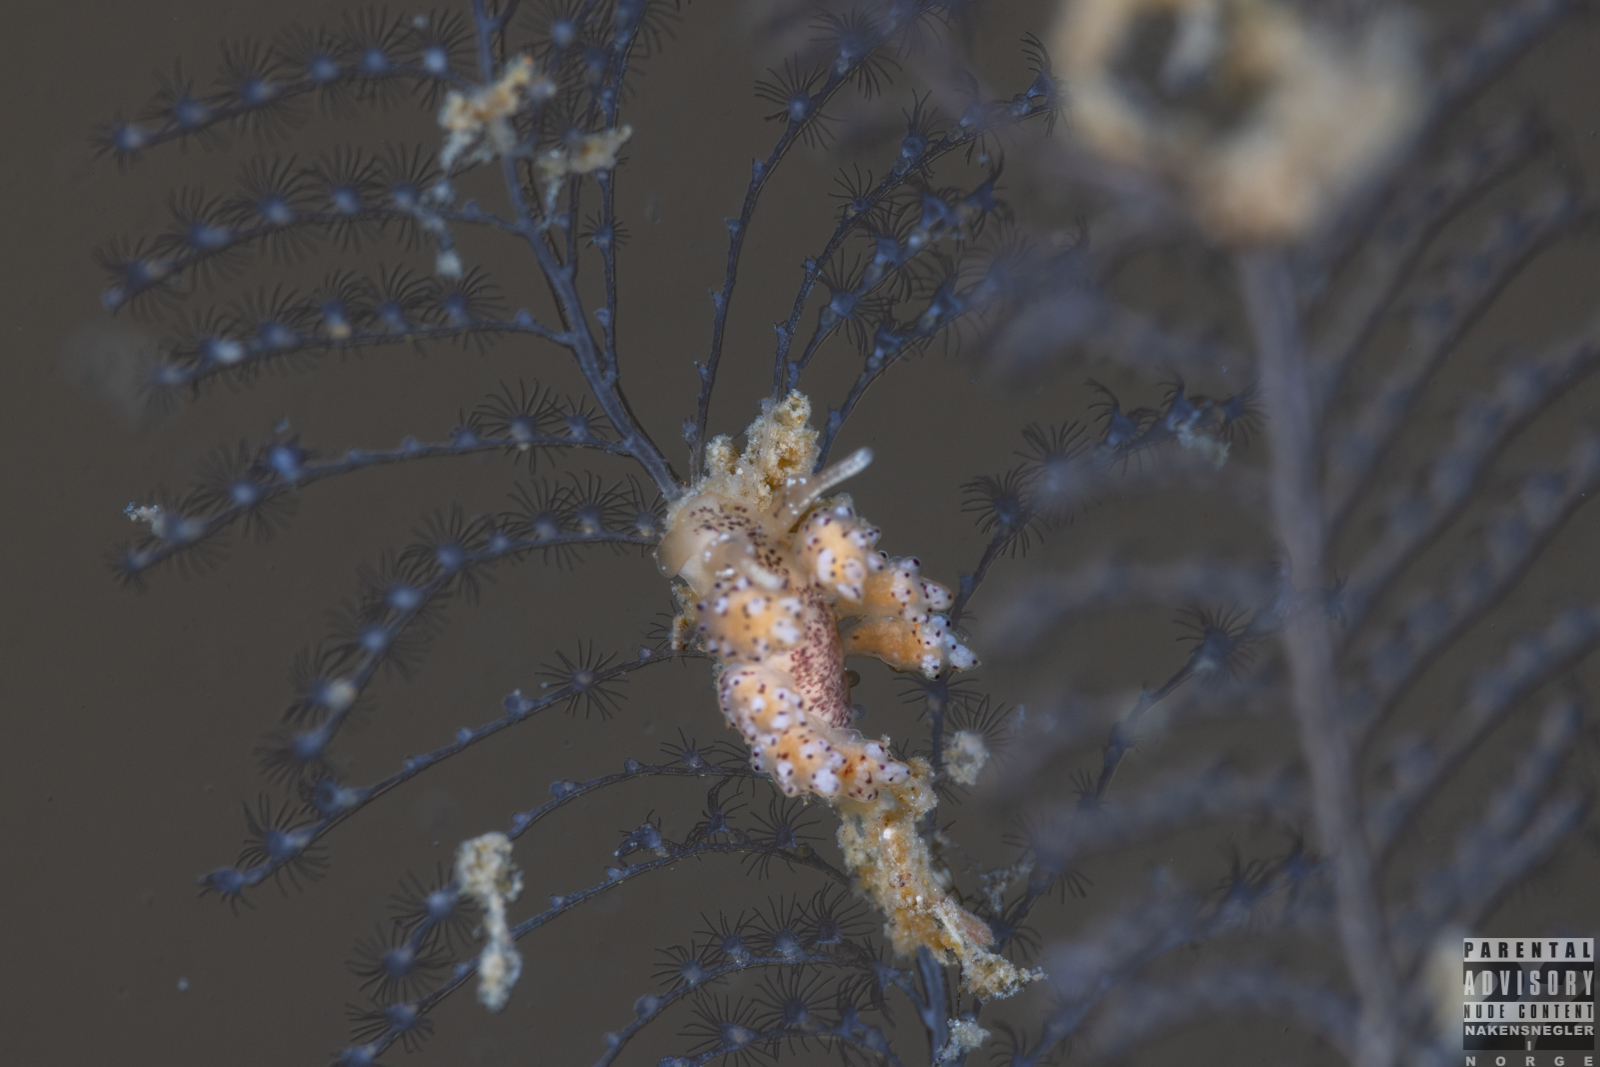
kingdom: Animalia
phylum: Mollusca
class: Gastropoda
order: Nudibranchia
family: Dotidae
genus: Doto
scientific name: Doto dunnei
